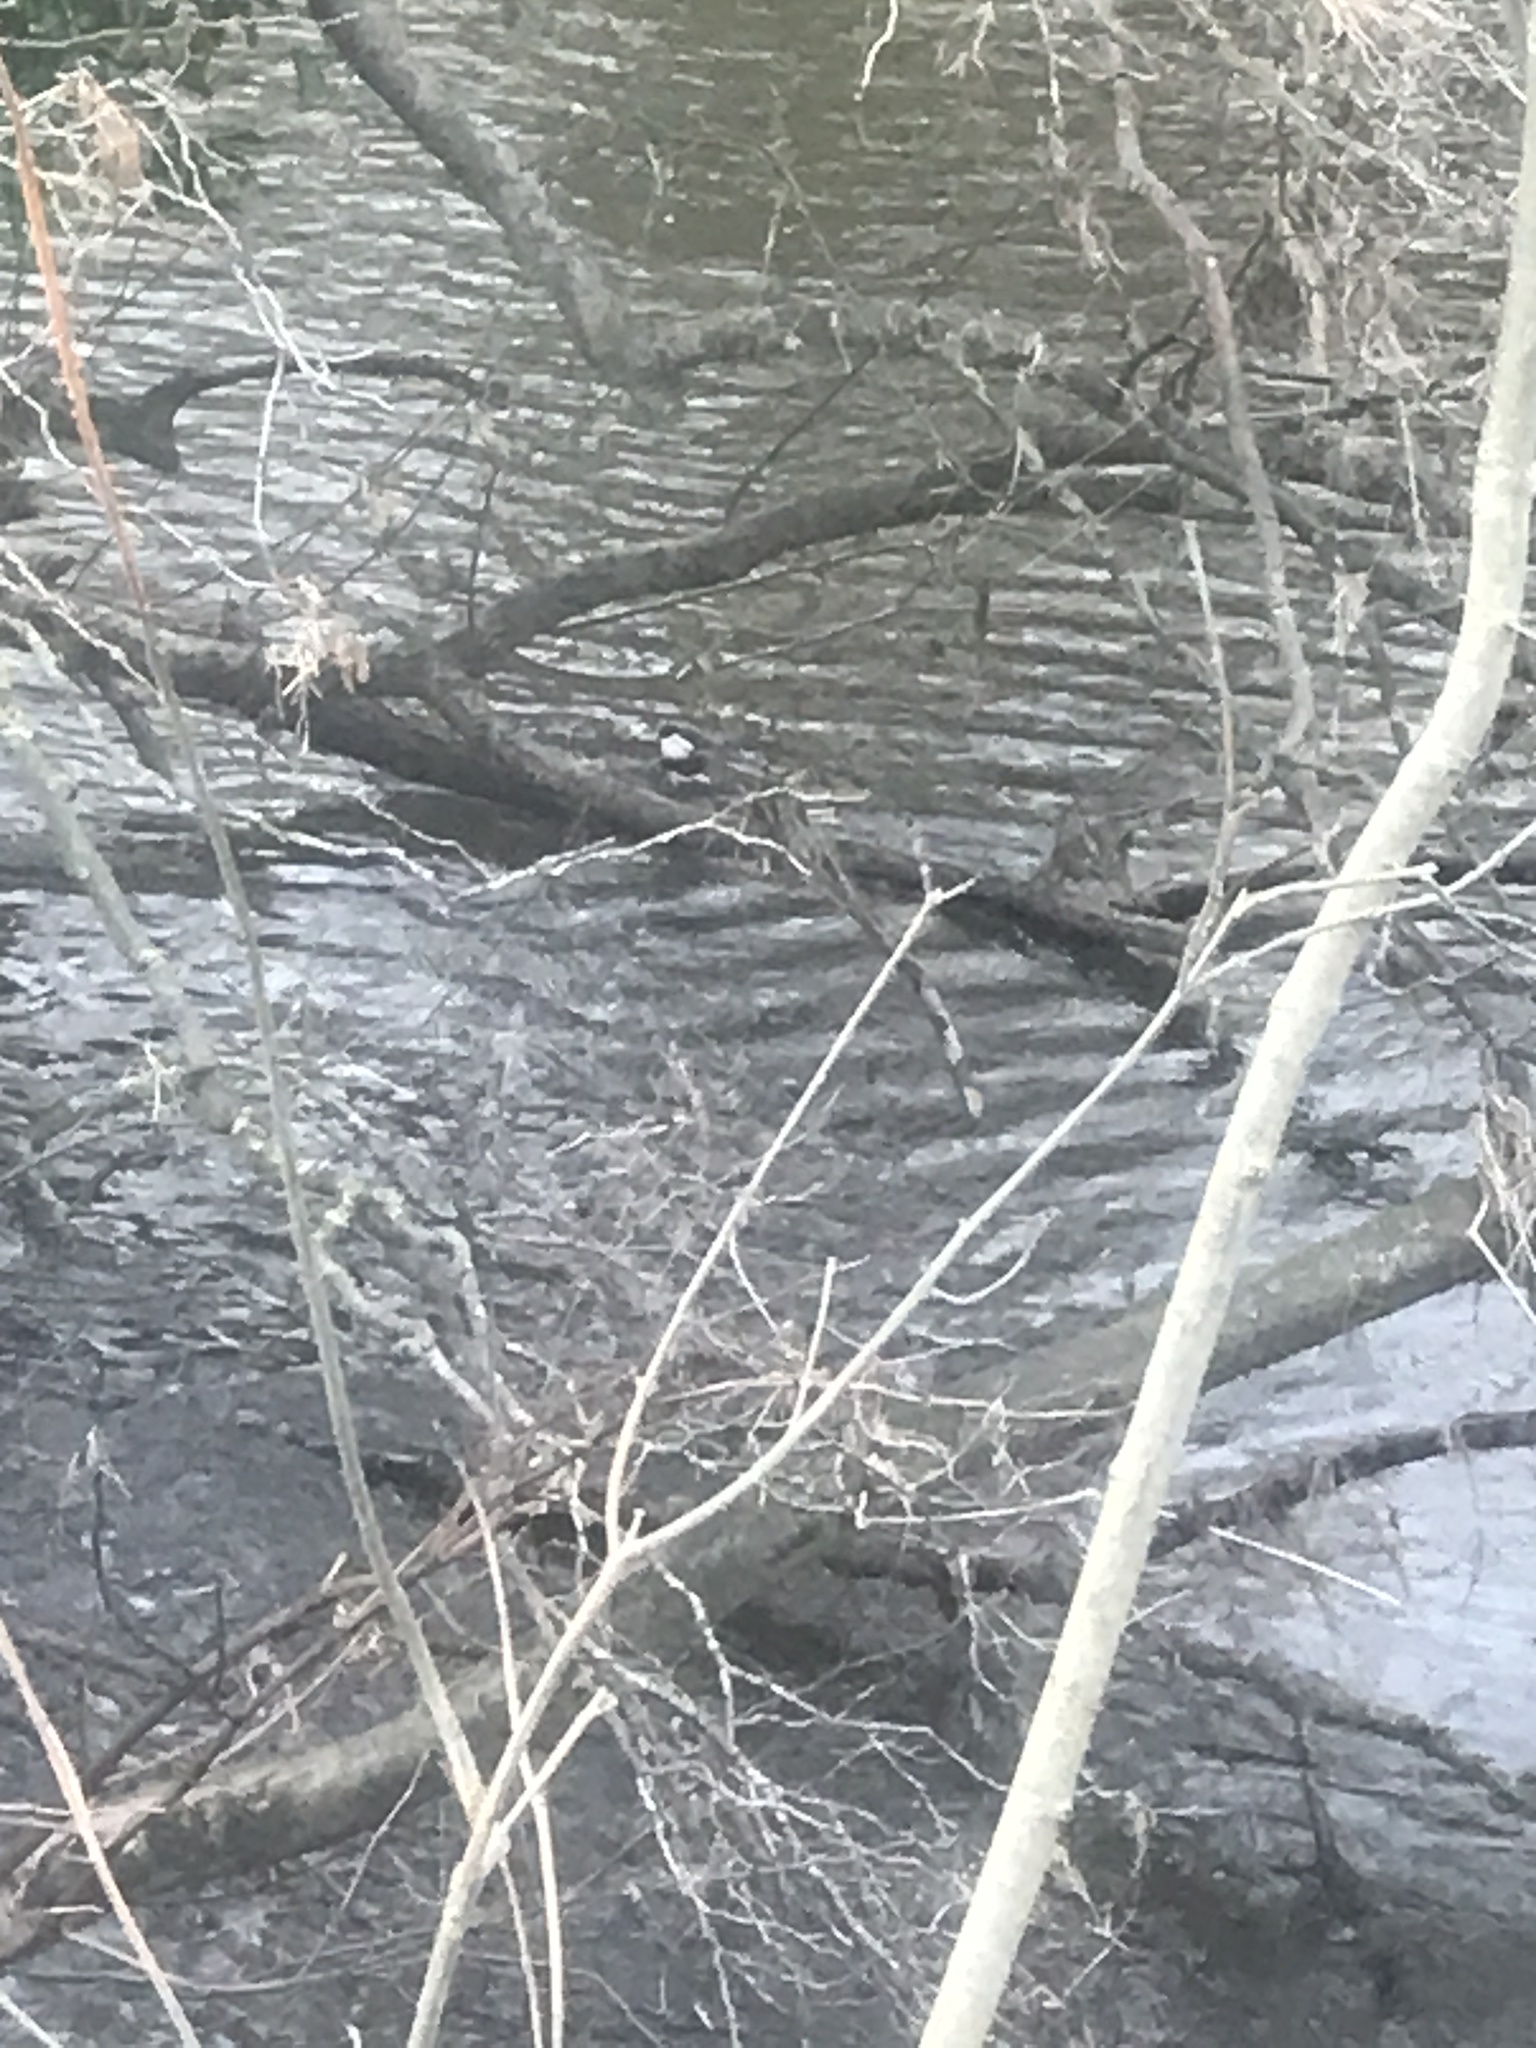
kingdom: Animalia
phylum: Chordata
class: Aves
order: Passeriformes
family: Cinclidae
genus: Cinclus
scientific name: Cinclus cinclus
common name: White-throated dipper
